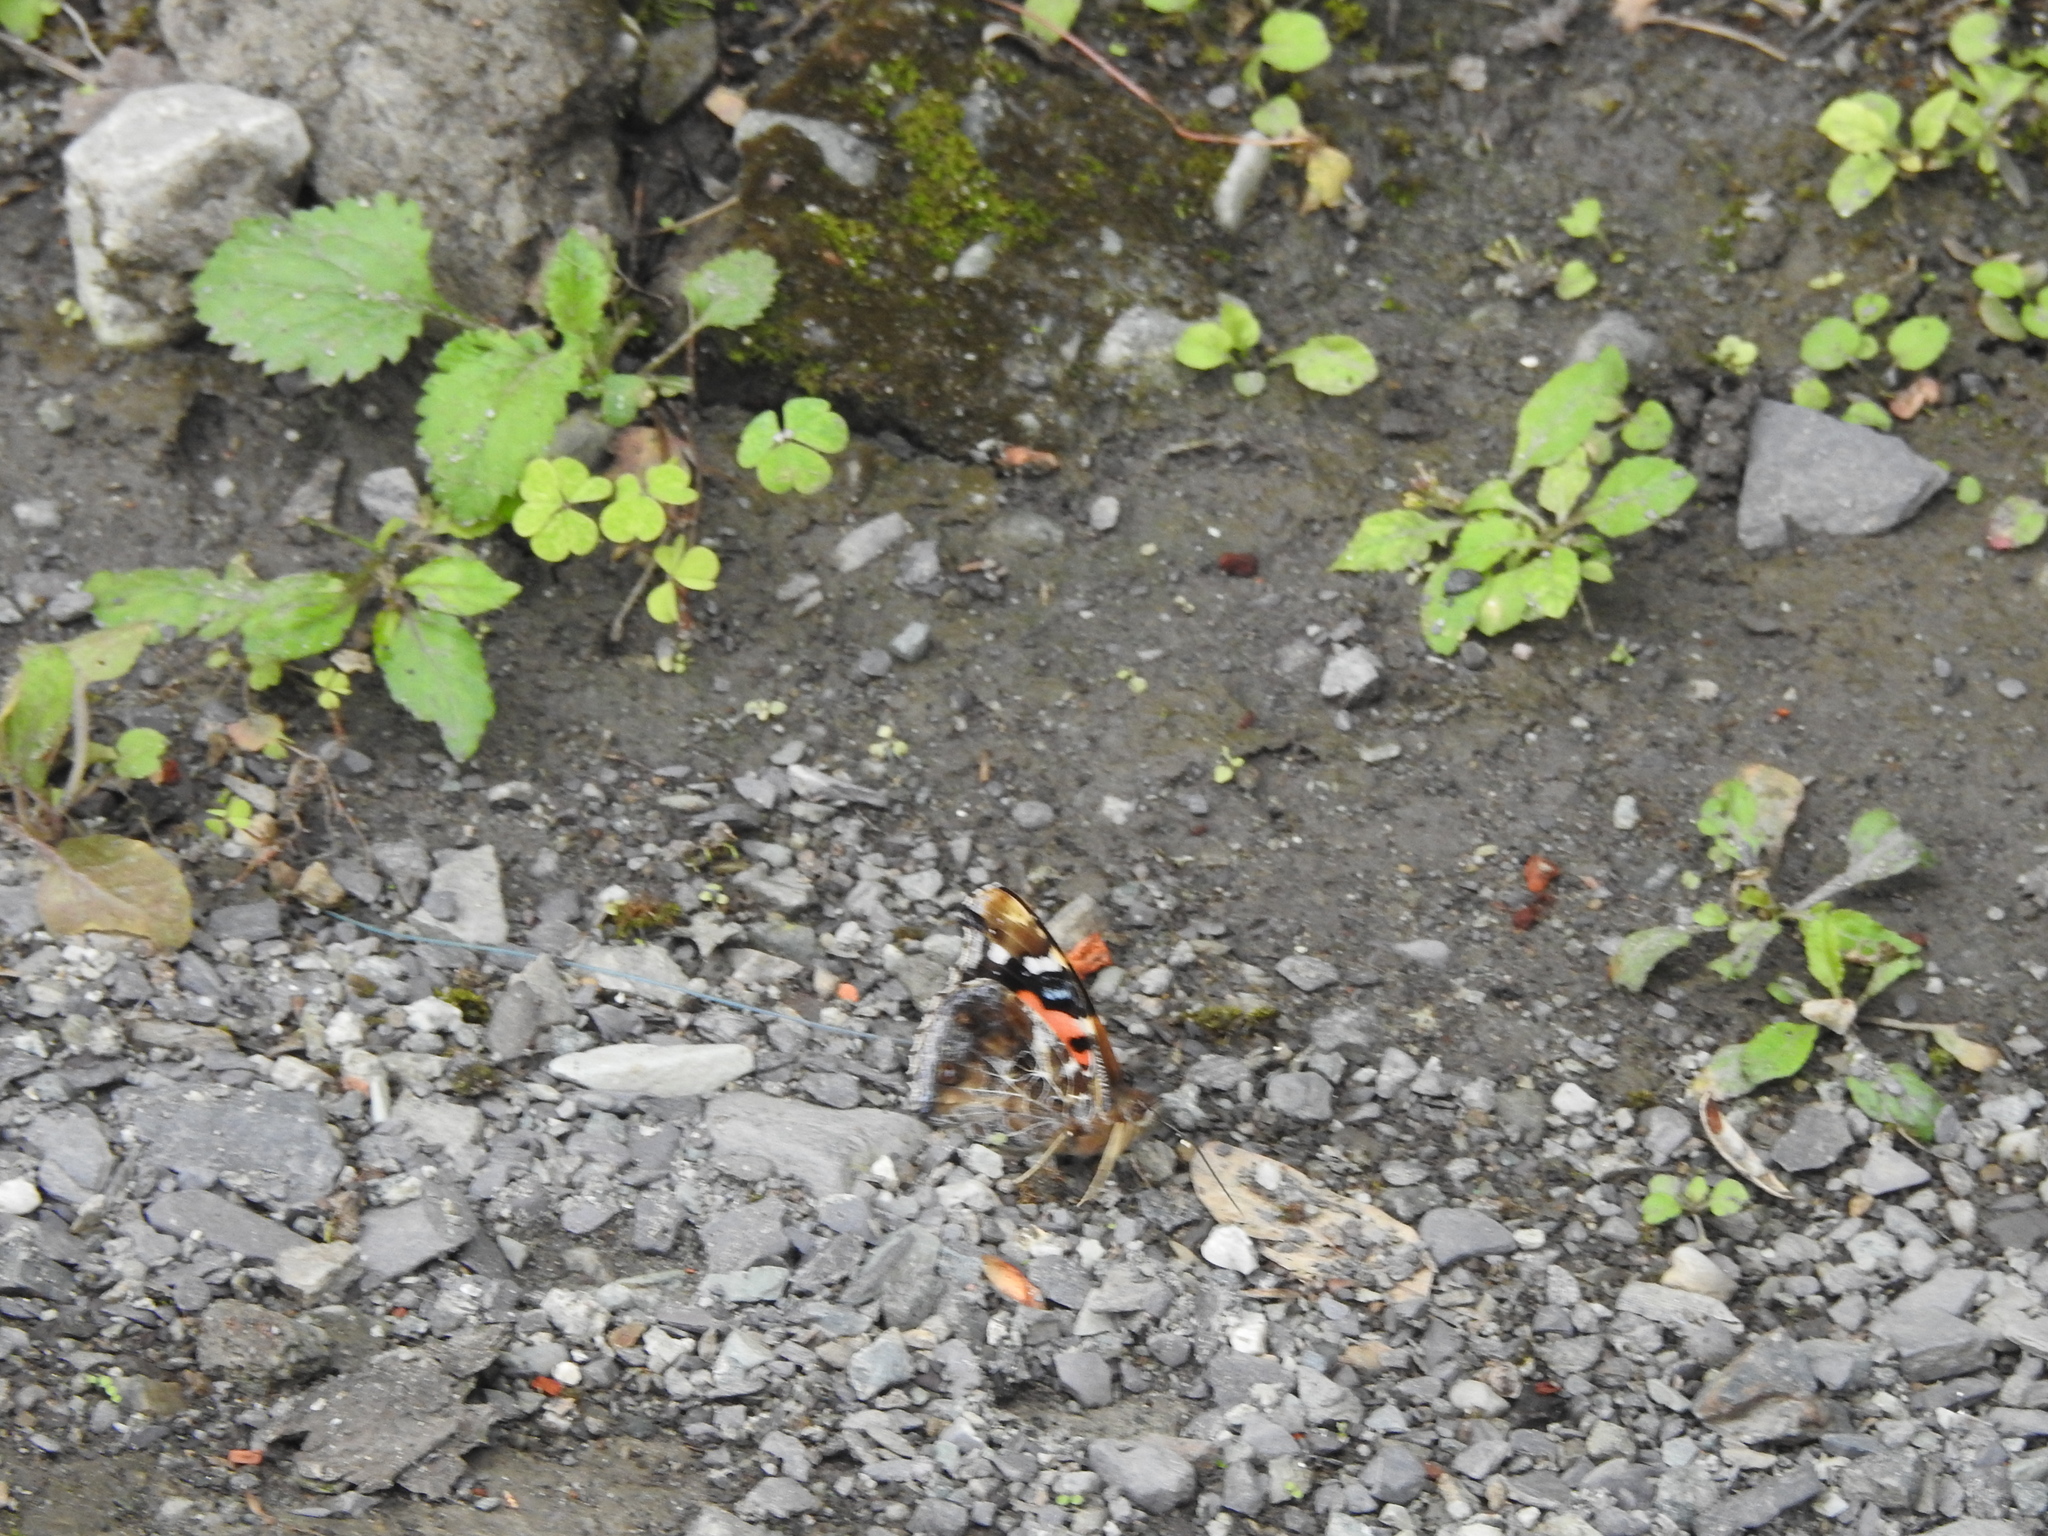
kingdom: Animalia
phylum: Arthropoda
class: Insecta
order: Lepidoptera
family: Nymphalidae
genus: Vanessa
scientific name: Vanessa indica
